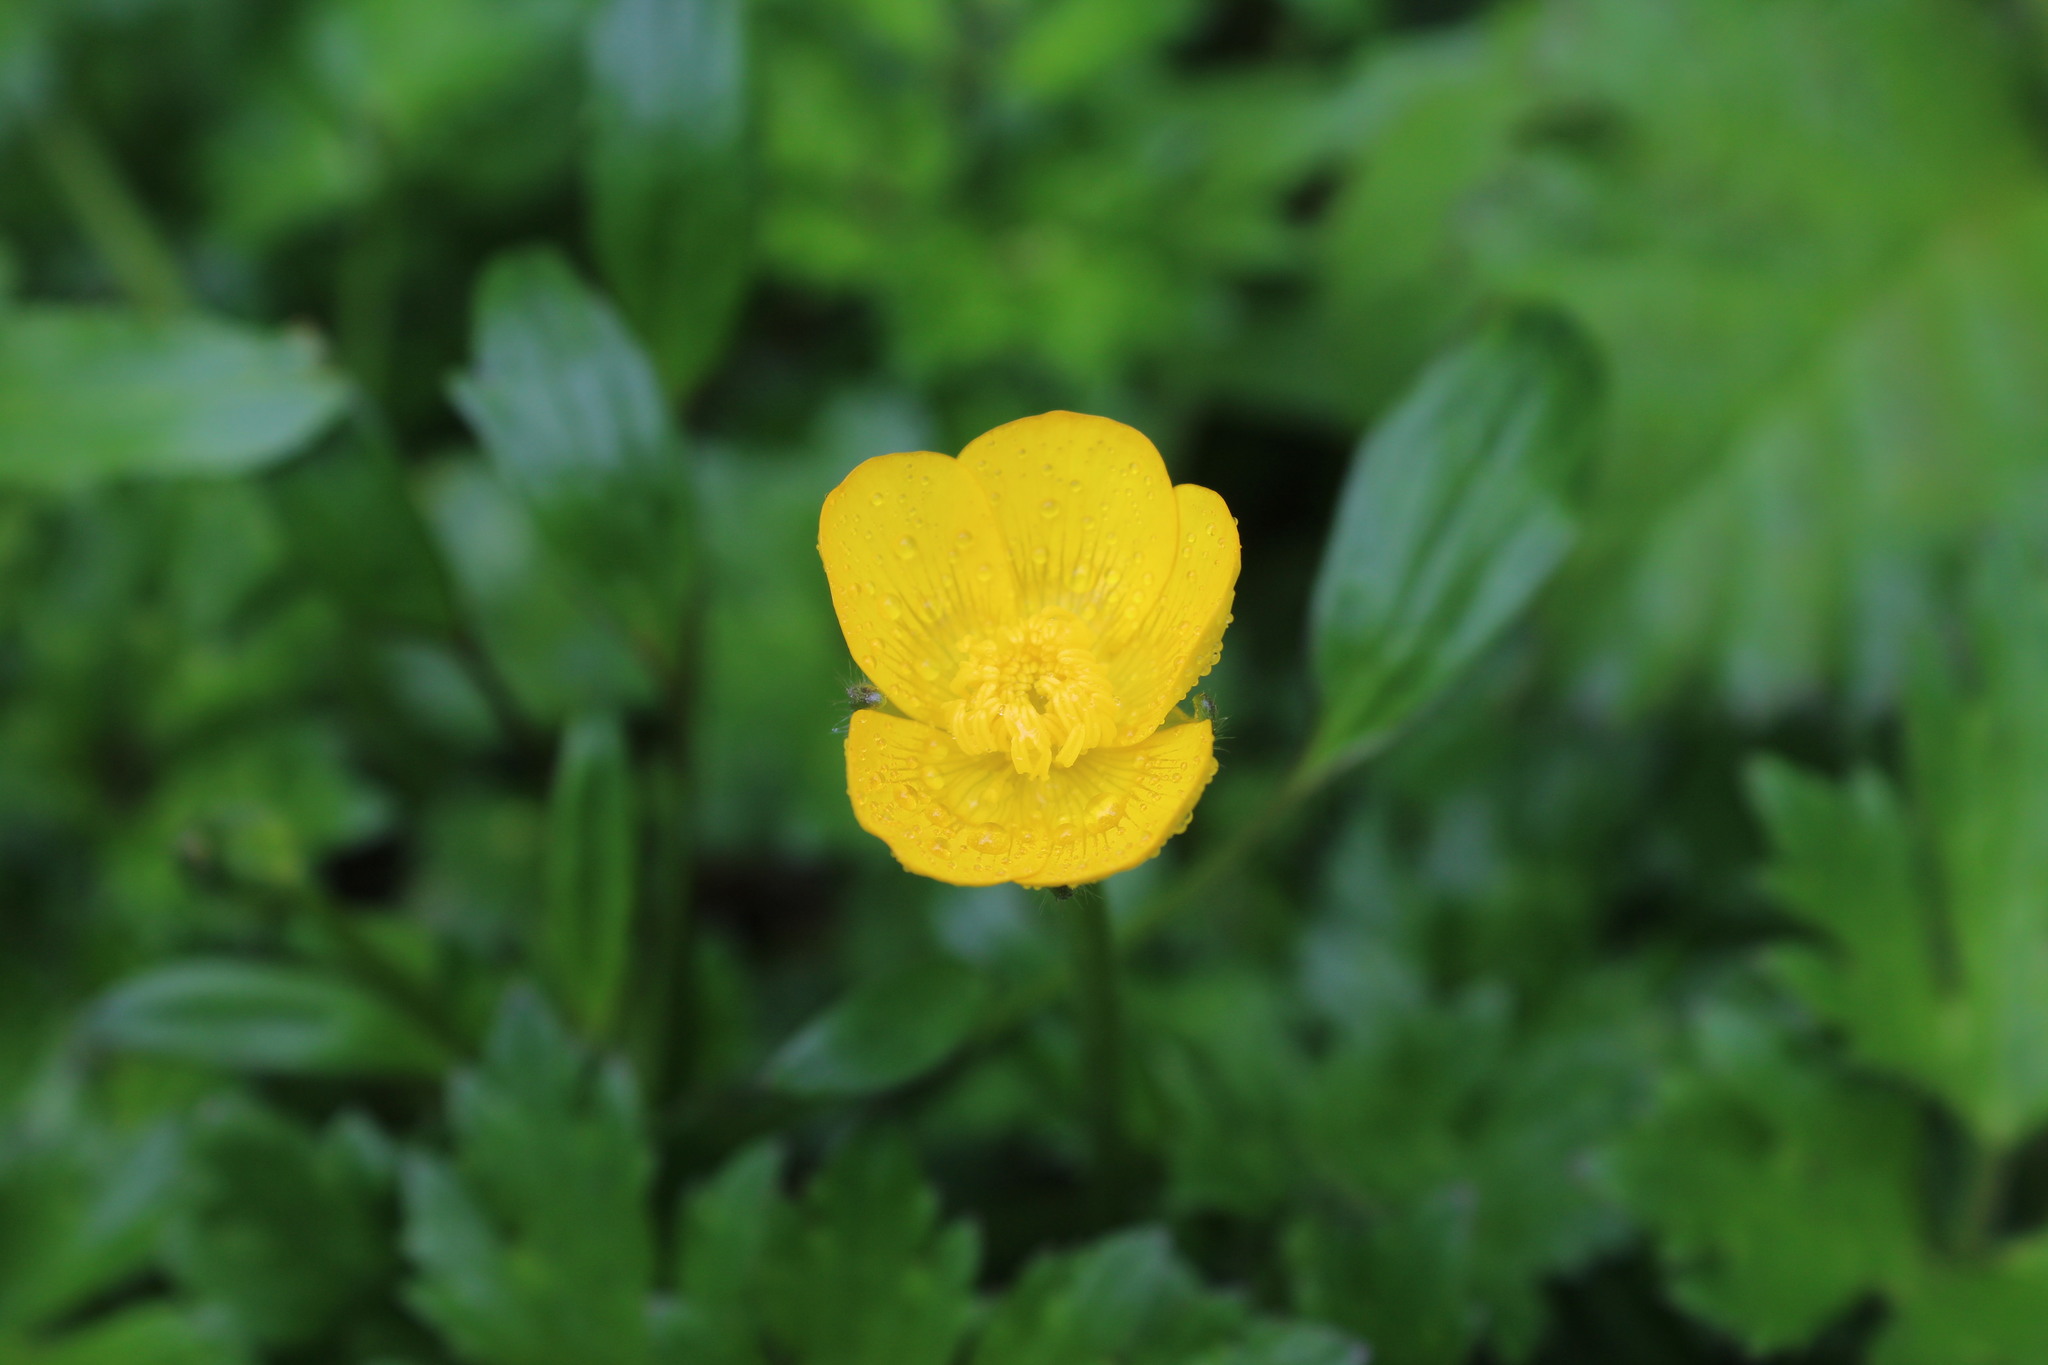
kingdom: Plantae
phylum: Tracheophyta
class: Magnoliopsida
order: Ranunculales
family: Ranunculaceae
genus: Ranunculus
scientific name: Ranunculus repens
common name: Creeping buttercup
